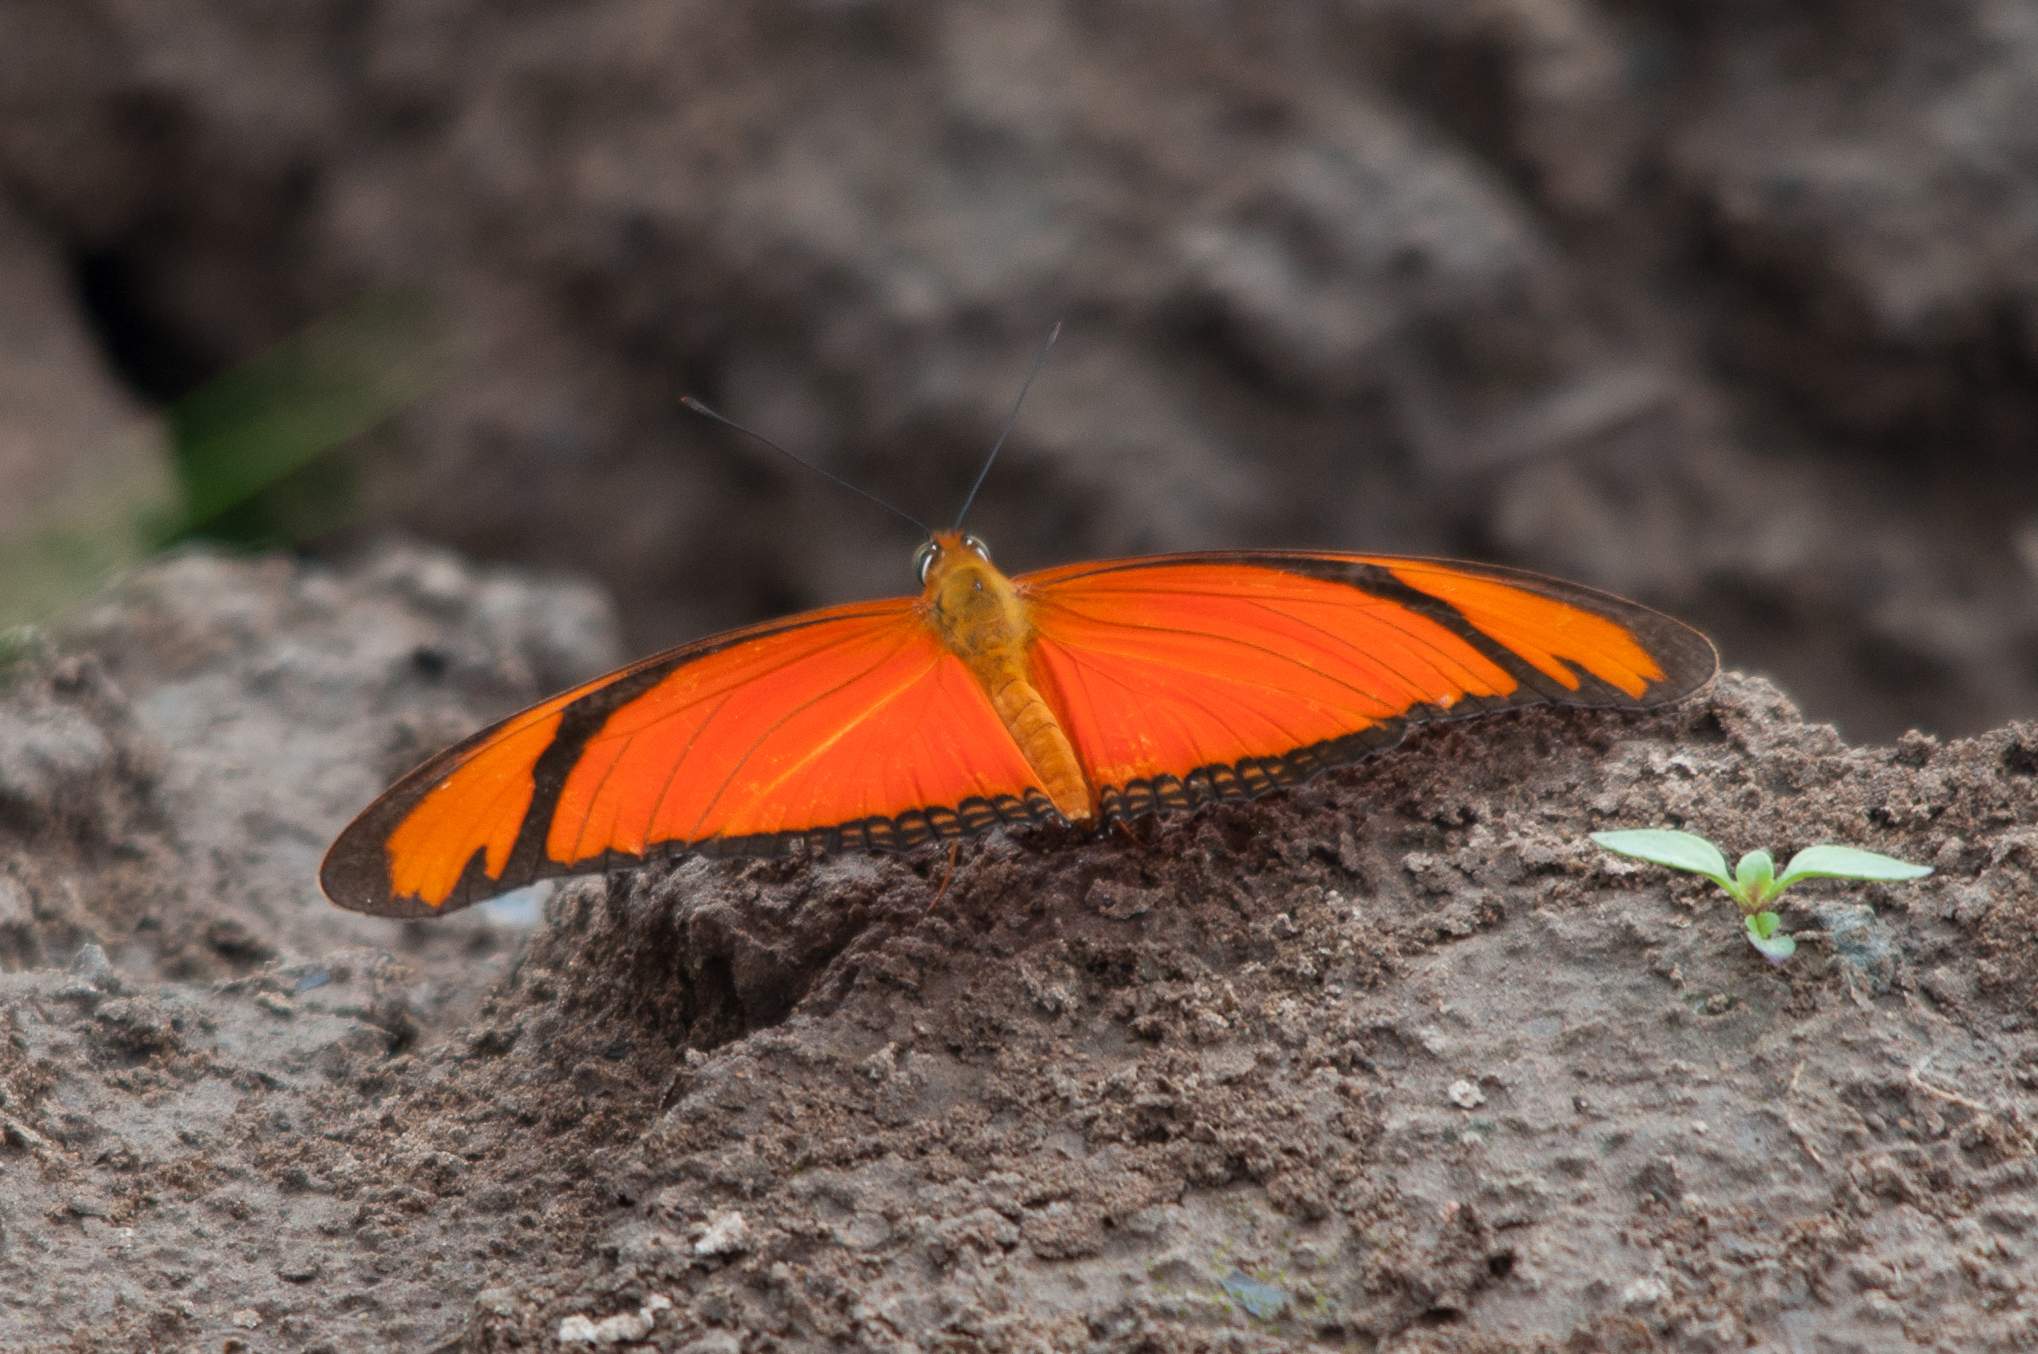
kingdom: Animalia
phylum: Arthropoda
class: Insecta
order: Lepidoptera
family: Nymphalidae
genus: Dryas
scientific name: Dryas iulia
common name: Flambeau
